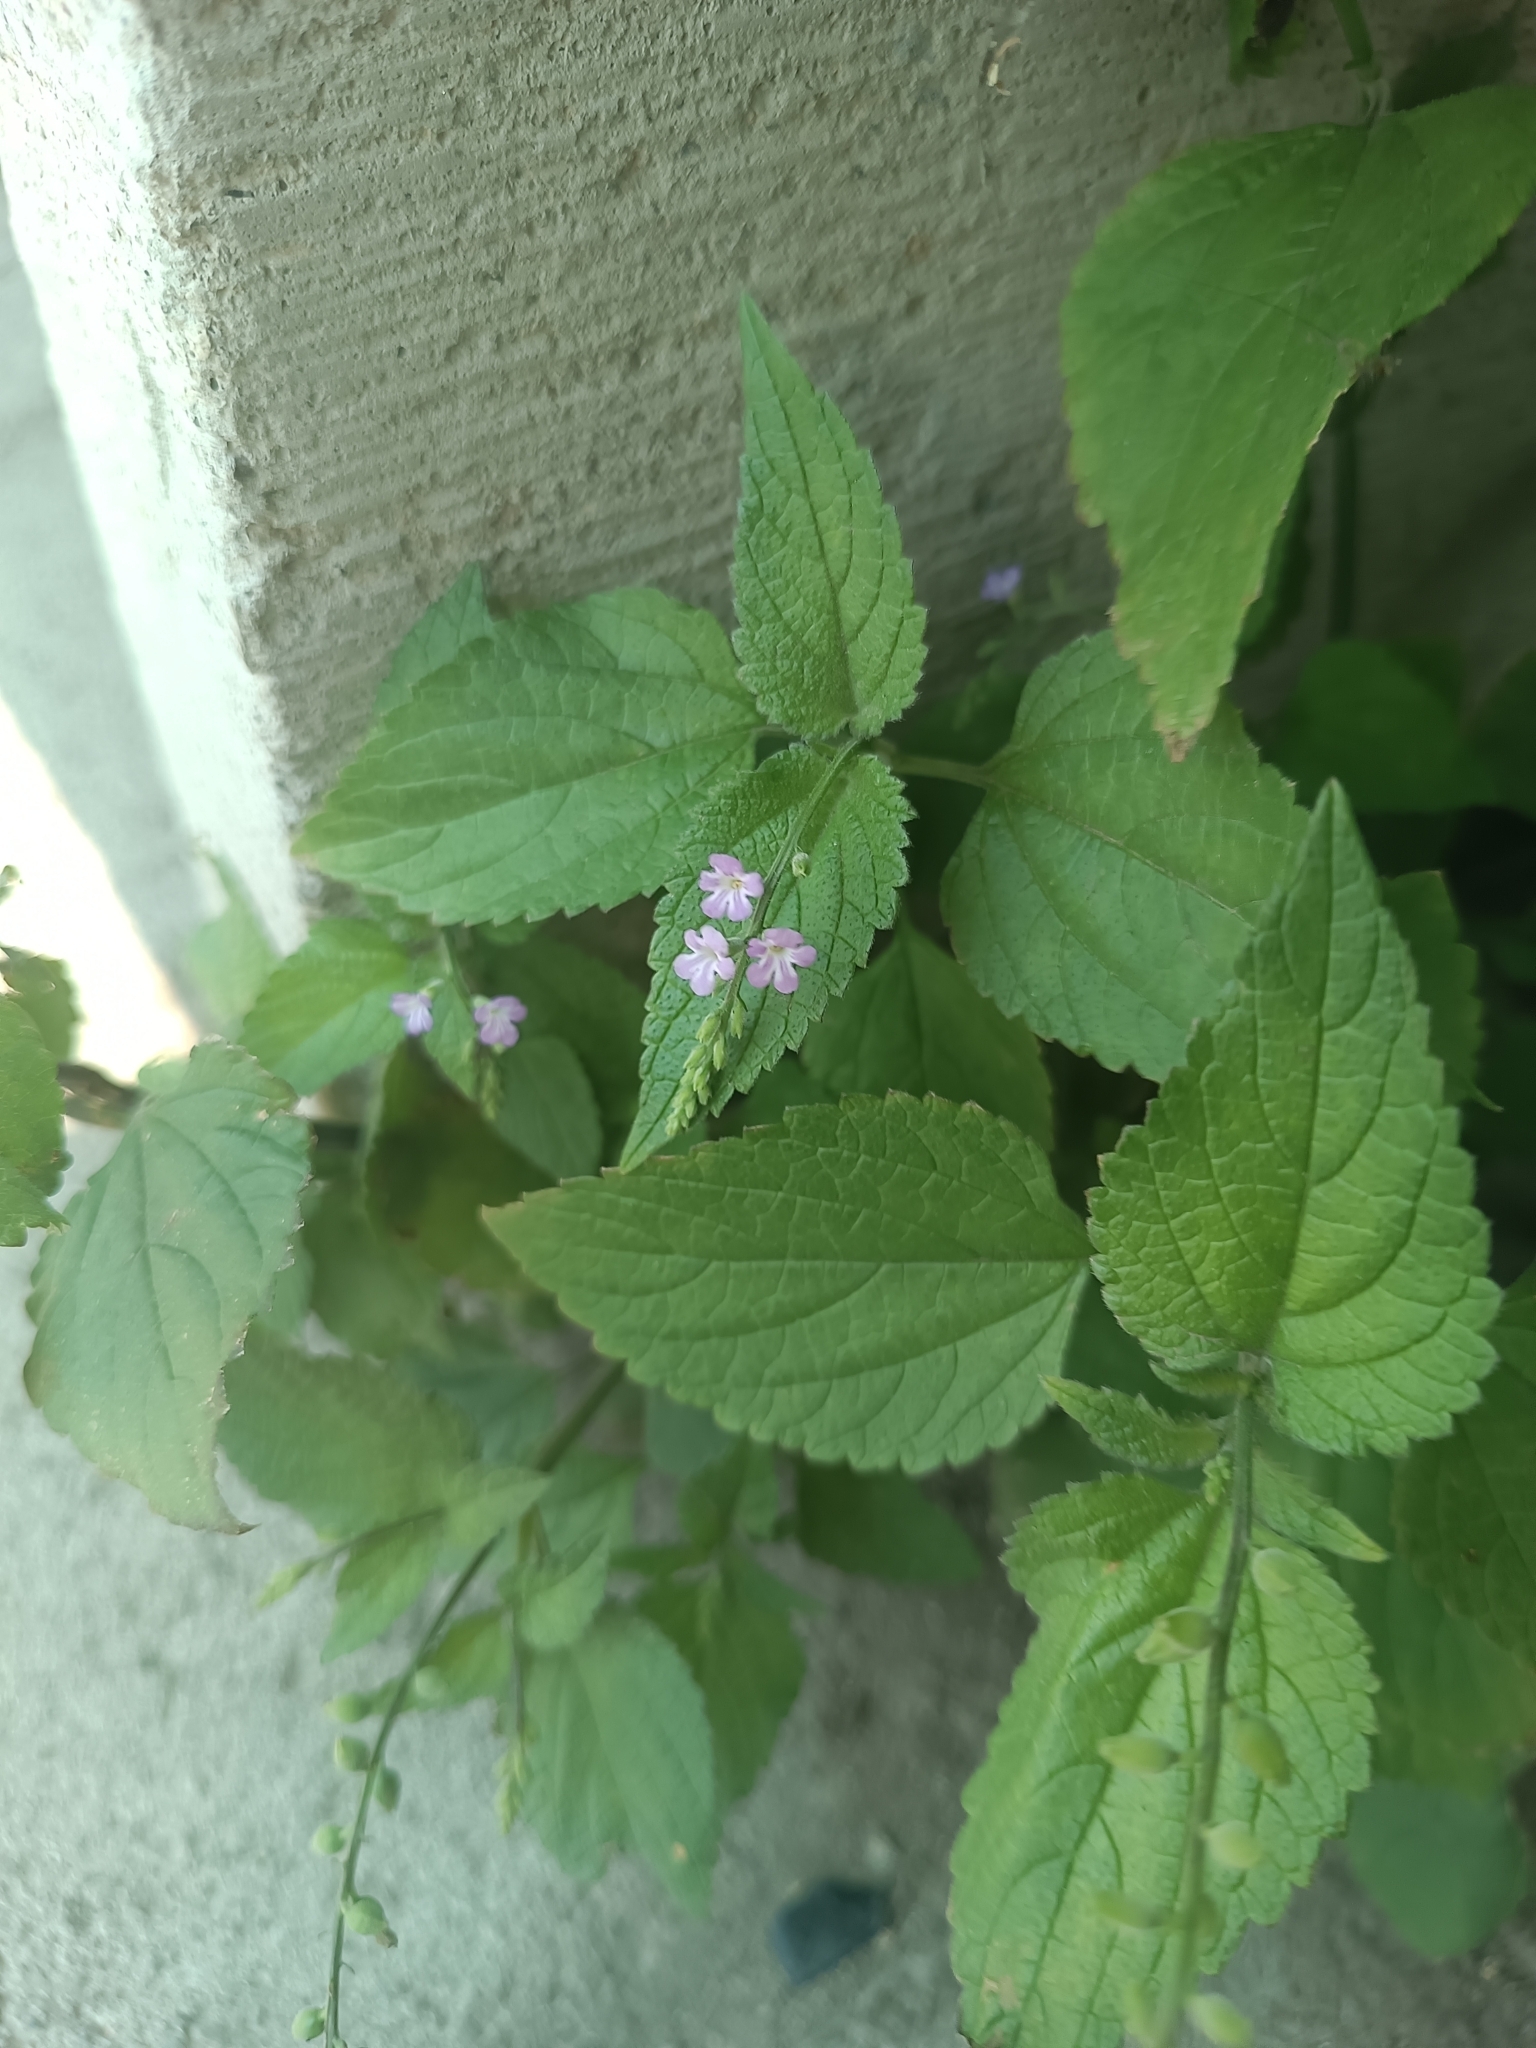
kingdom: Plantae
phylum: Tracheophyta
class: Magnoliopsida
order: Lamiales
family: Verbenaceae
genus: Priva
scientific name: Priva lappulacea
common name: Fasten-'pon-coat
